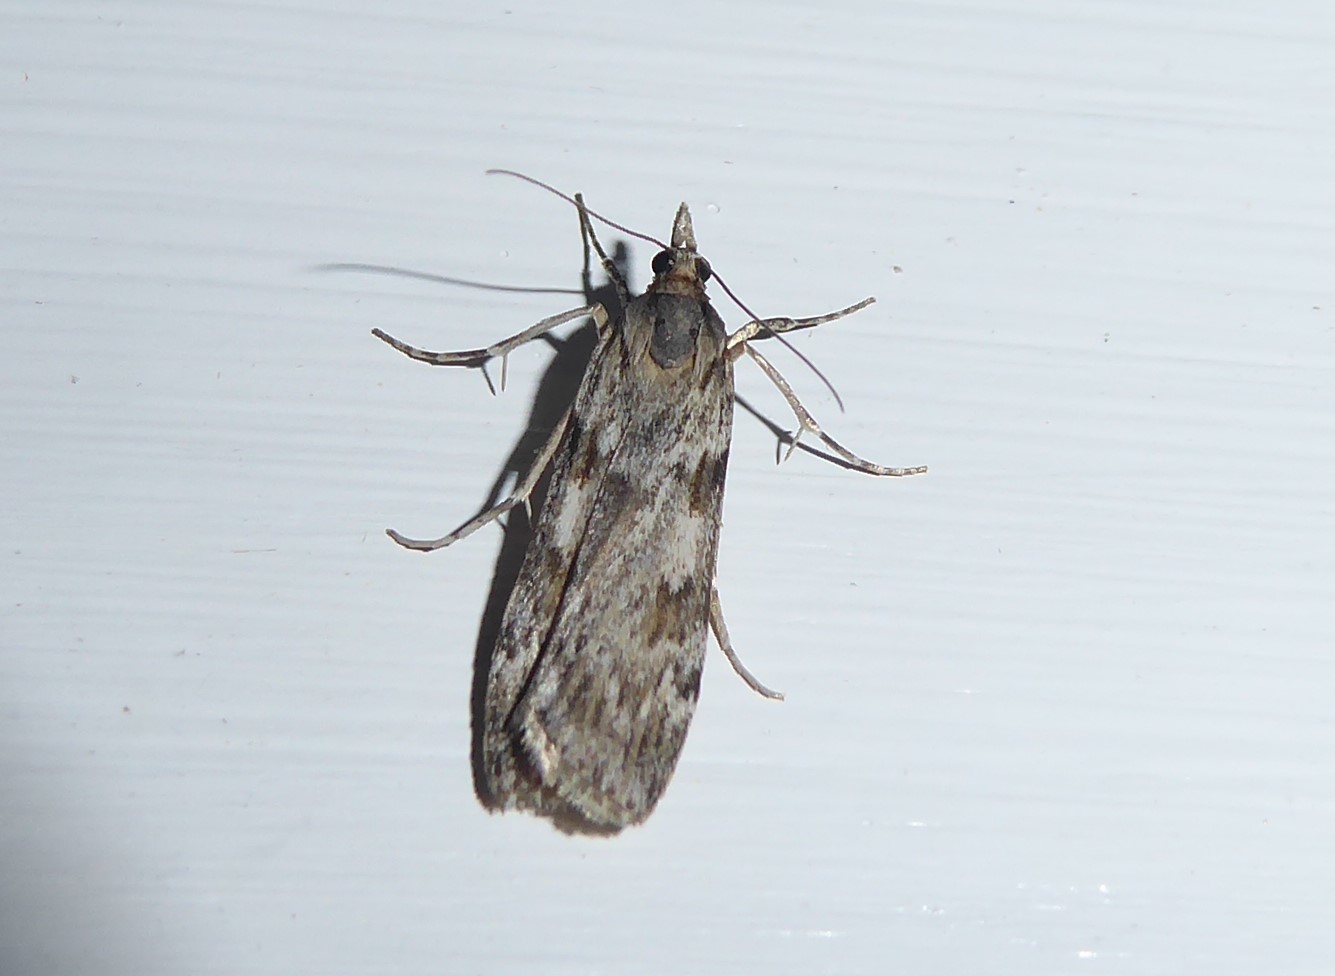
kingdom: Animalia
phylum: Arthropoda
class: Insecta
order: Lepidoptera
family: Crambidae
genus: Scoparia
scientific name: Scoparia halopis
